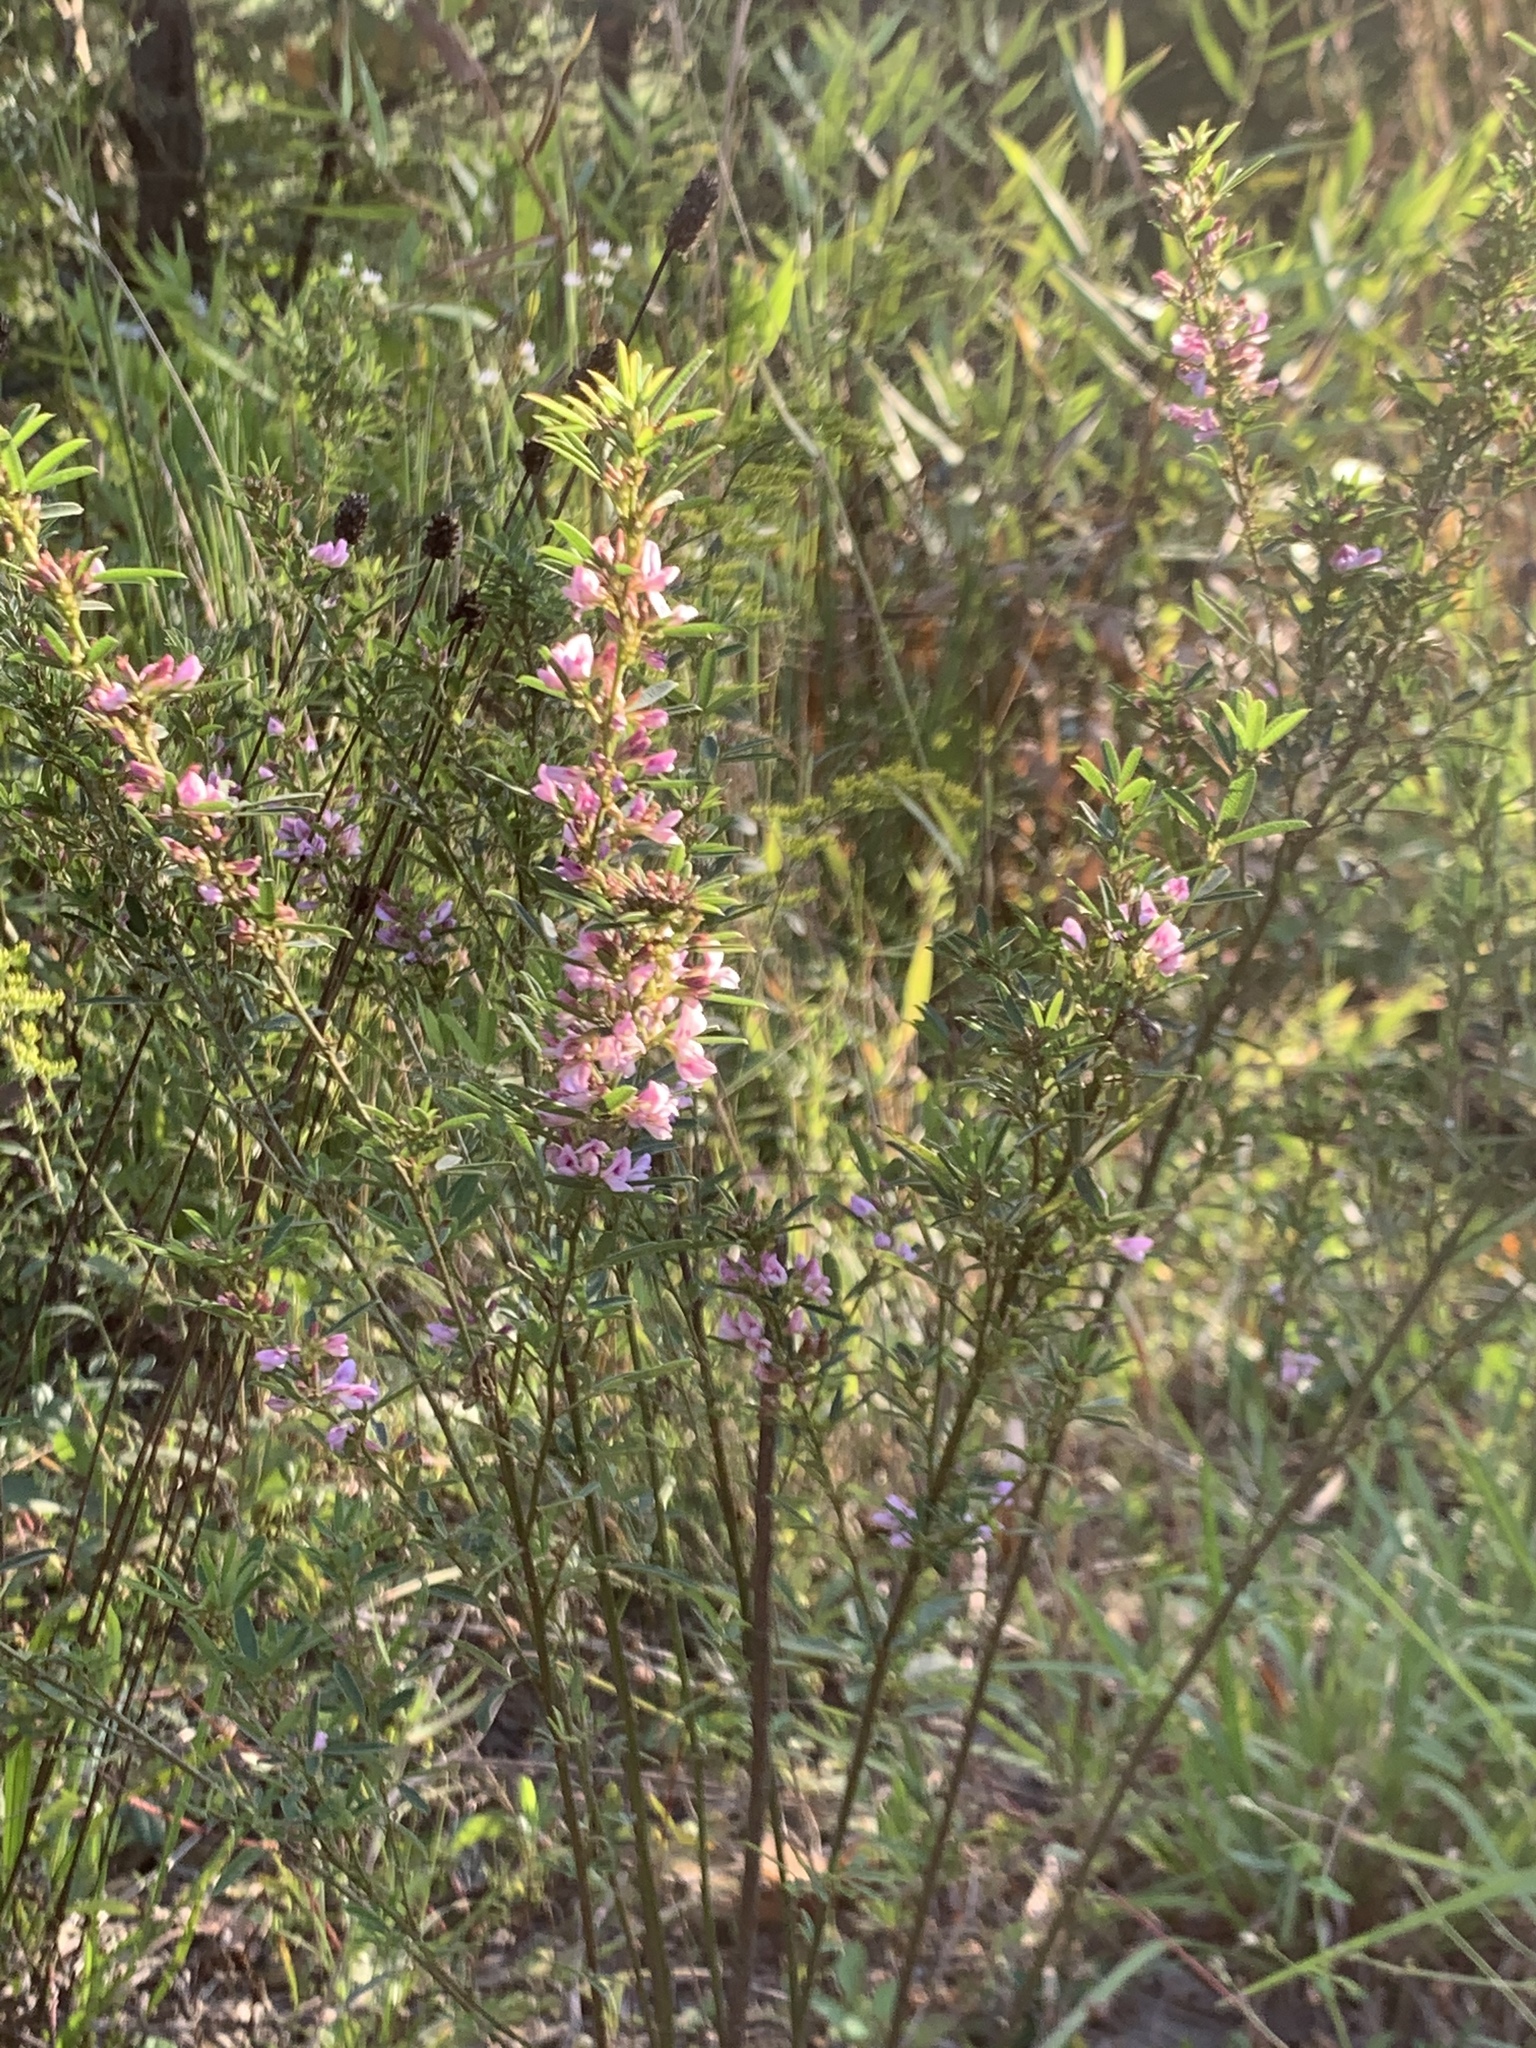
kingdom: Plantae
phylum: Tracheophyta
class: Magnoliopsida
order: Fabales
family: Fabaceae
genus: Lespedeza
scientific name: Lespedeza virginica
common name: Slender bush-clover
